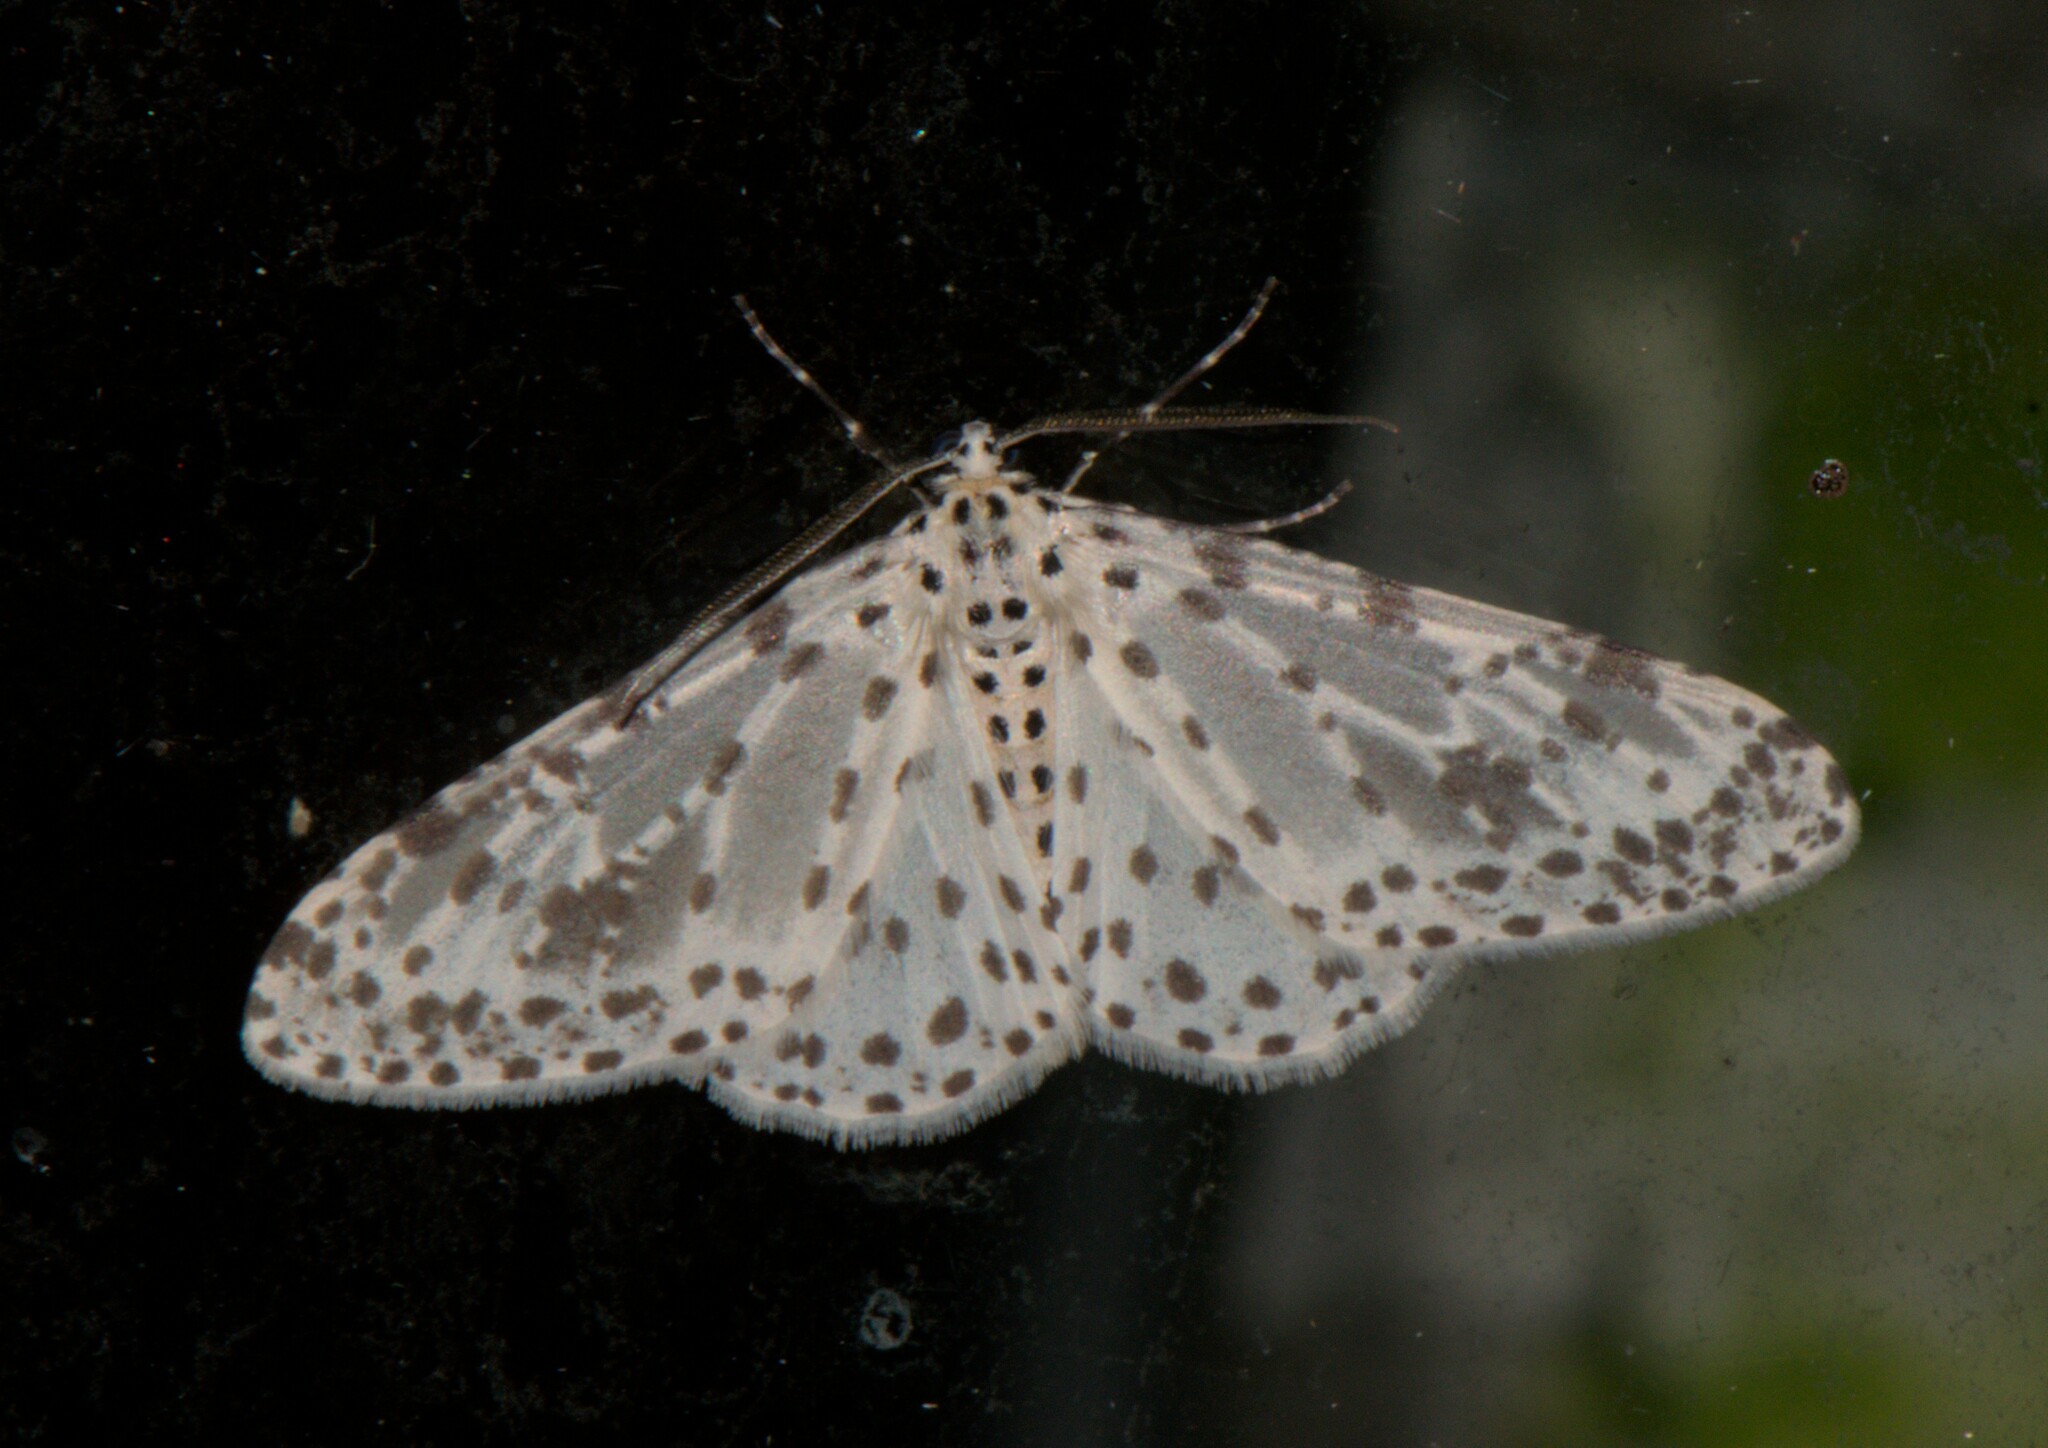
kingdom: Animalia
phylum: Arthropoda
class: Insecta
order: Lepidoptera
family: Geometridae
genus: Xenoplia
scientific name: Xenoplia maculata
